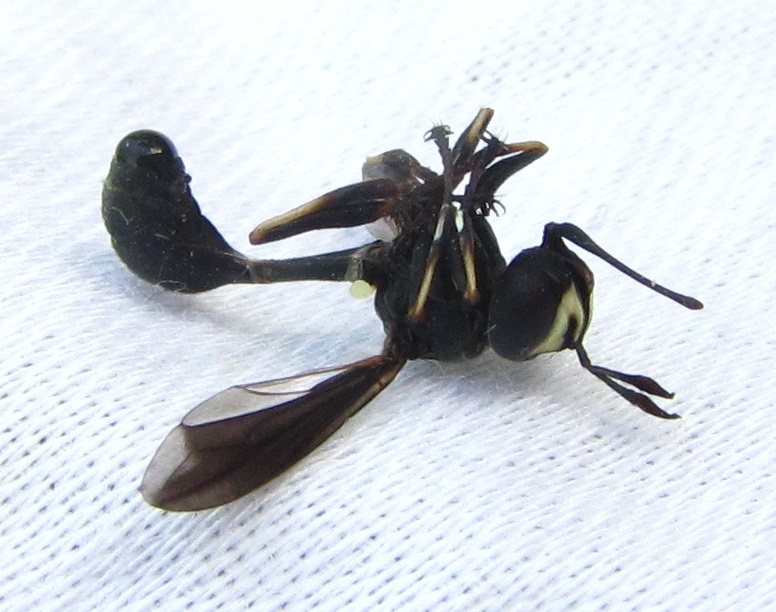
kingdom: Animalia
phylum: Arthropoda
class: Insecta
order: Diptera
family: Conopidae
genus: Physocephala
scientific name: Physocephala tibialis
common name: Common eastern physocephala
